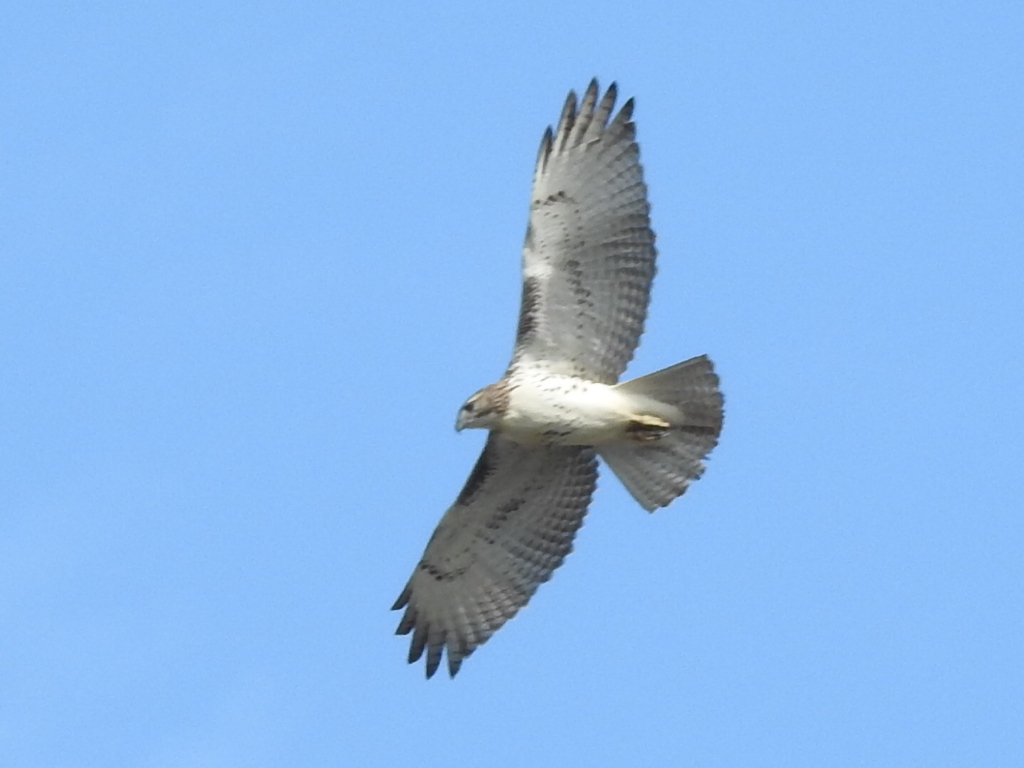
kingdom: Animalia
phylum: Chordata
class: Aves
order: Accipitriformes
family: Accipitridae
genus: Buteo
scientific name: Buteo jamaicensis
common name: Red-tailed hawk
